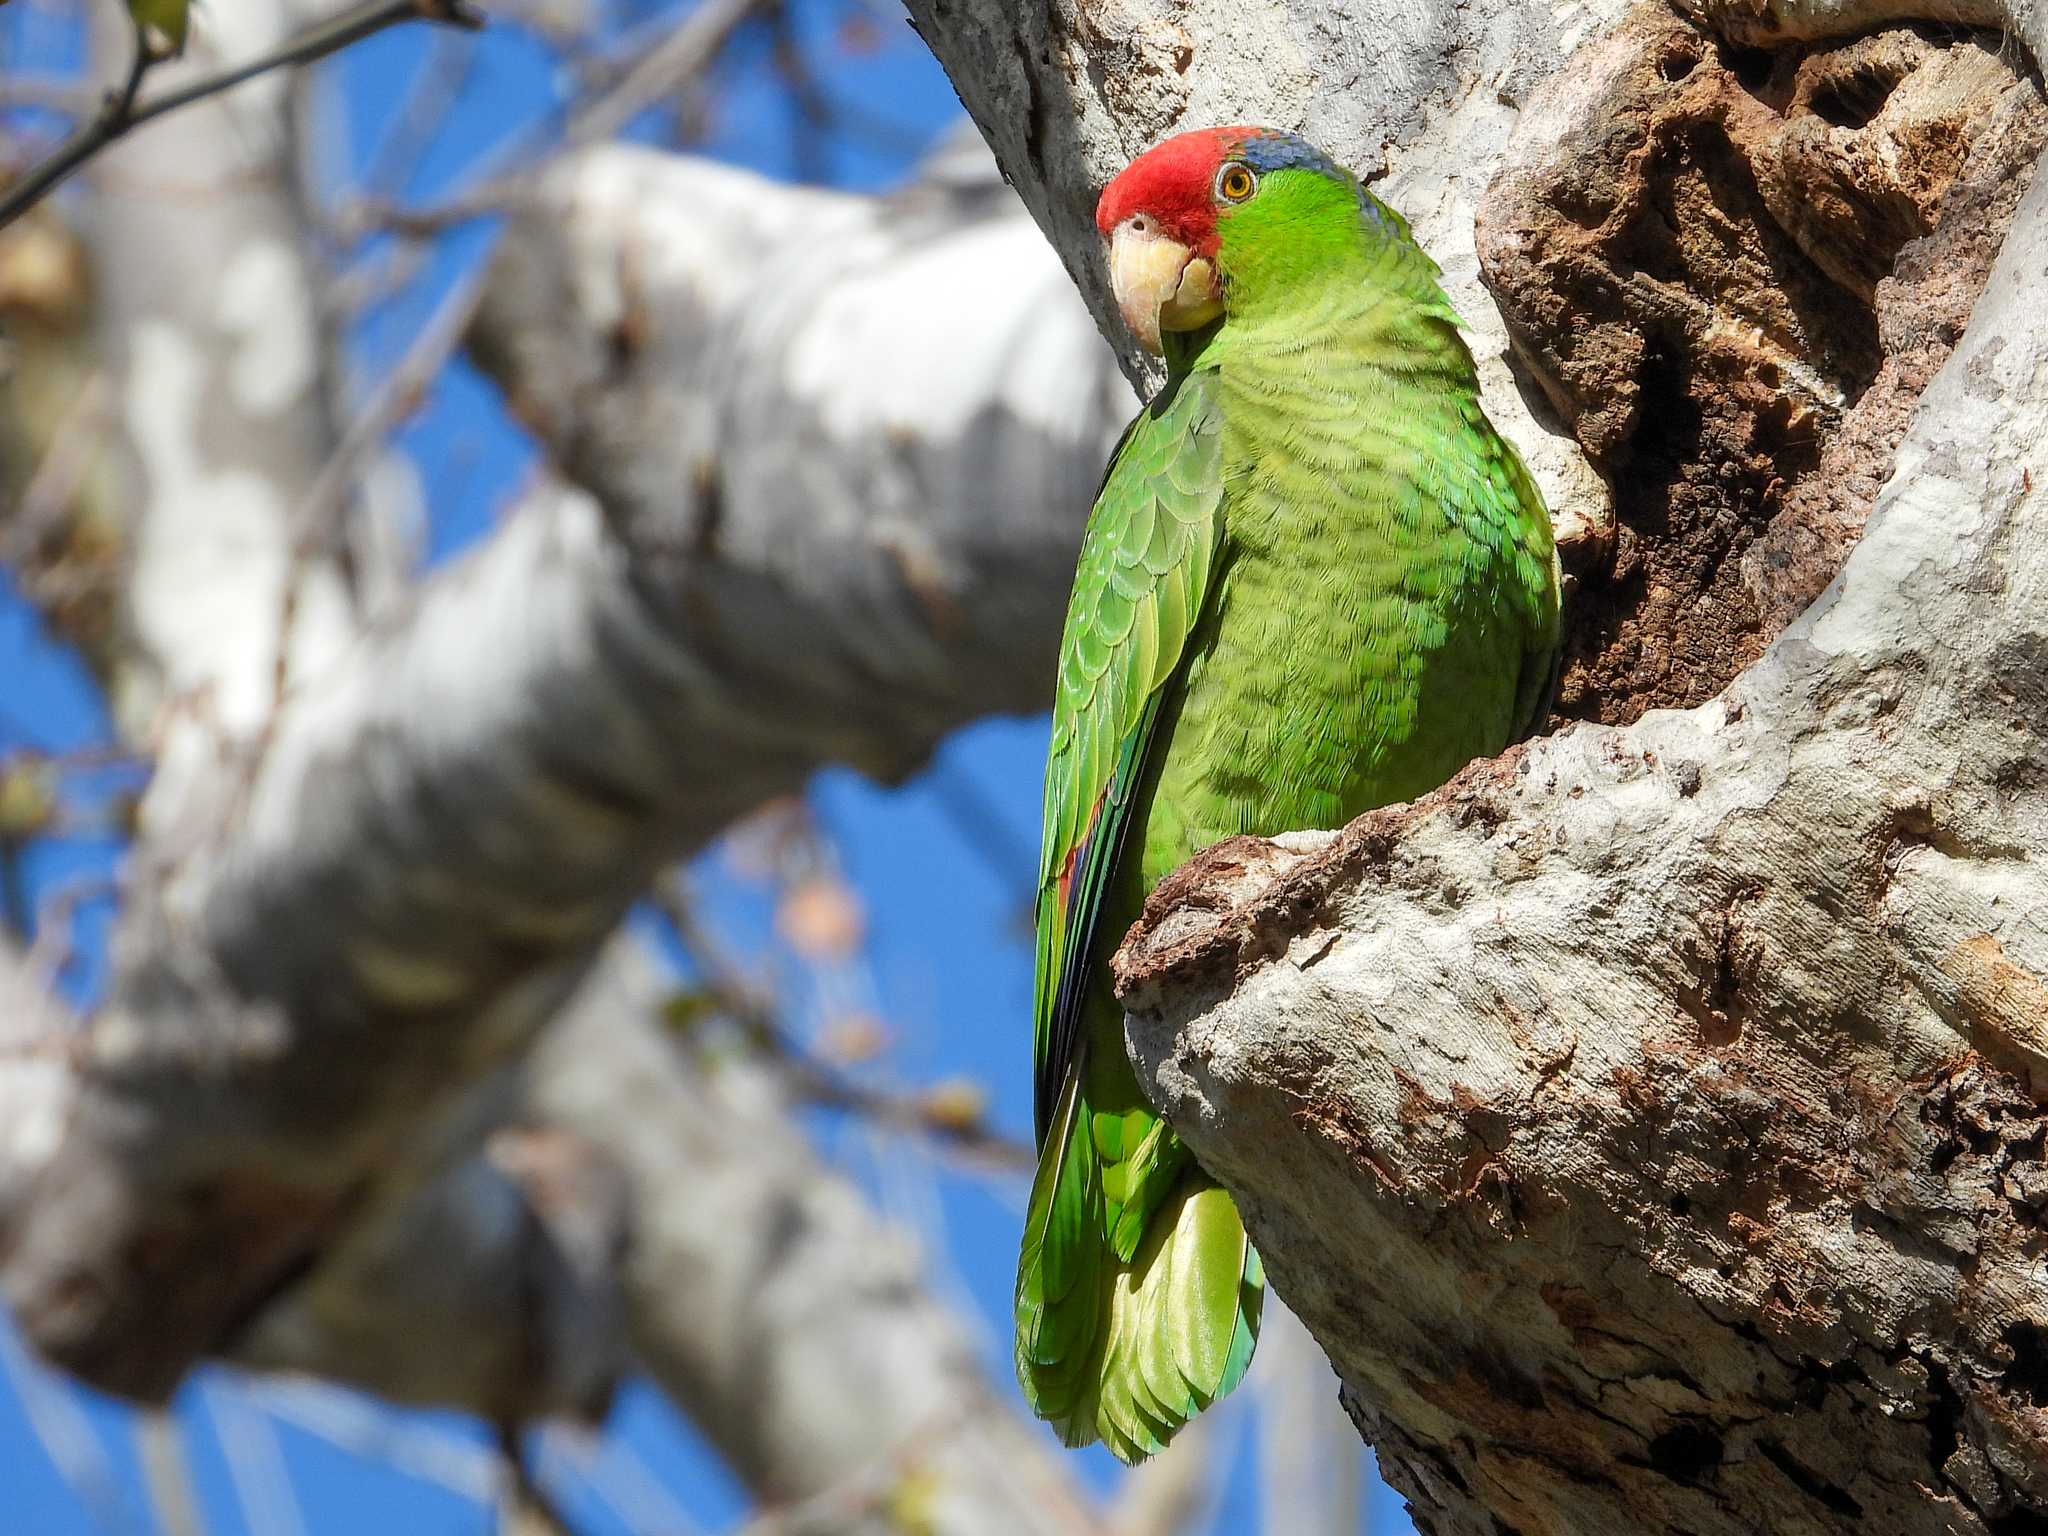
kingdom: Animalia
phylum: Chordata
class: Aves
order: Psittaciformes
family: Psittacidae
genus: Amazona
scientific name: Amazona viridigenalis
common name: Red-crowned amazon
